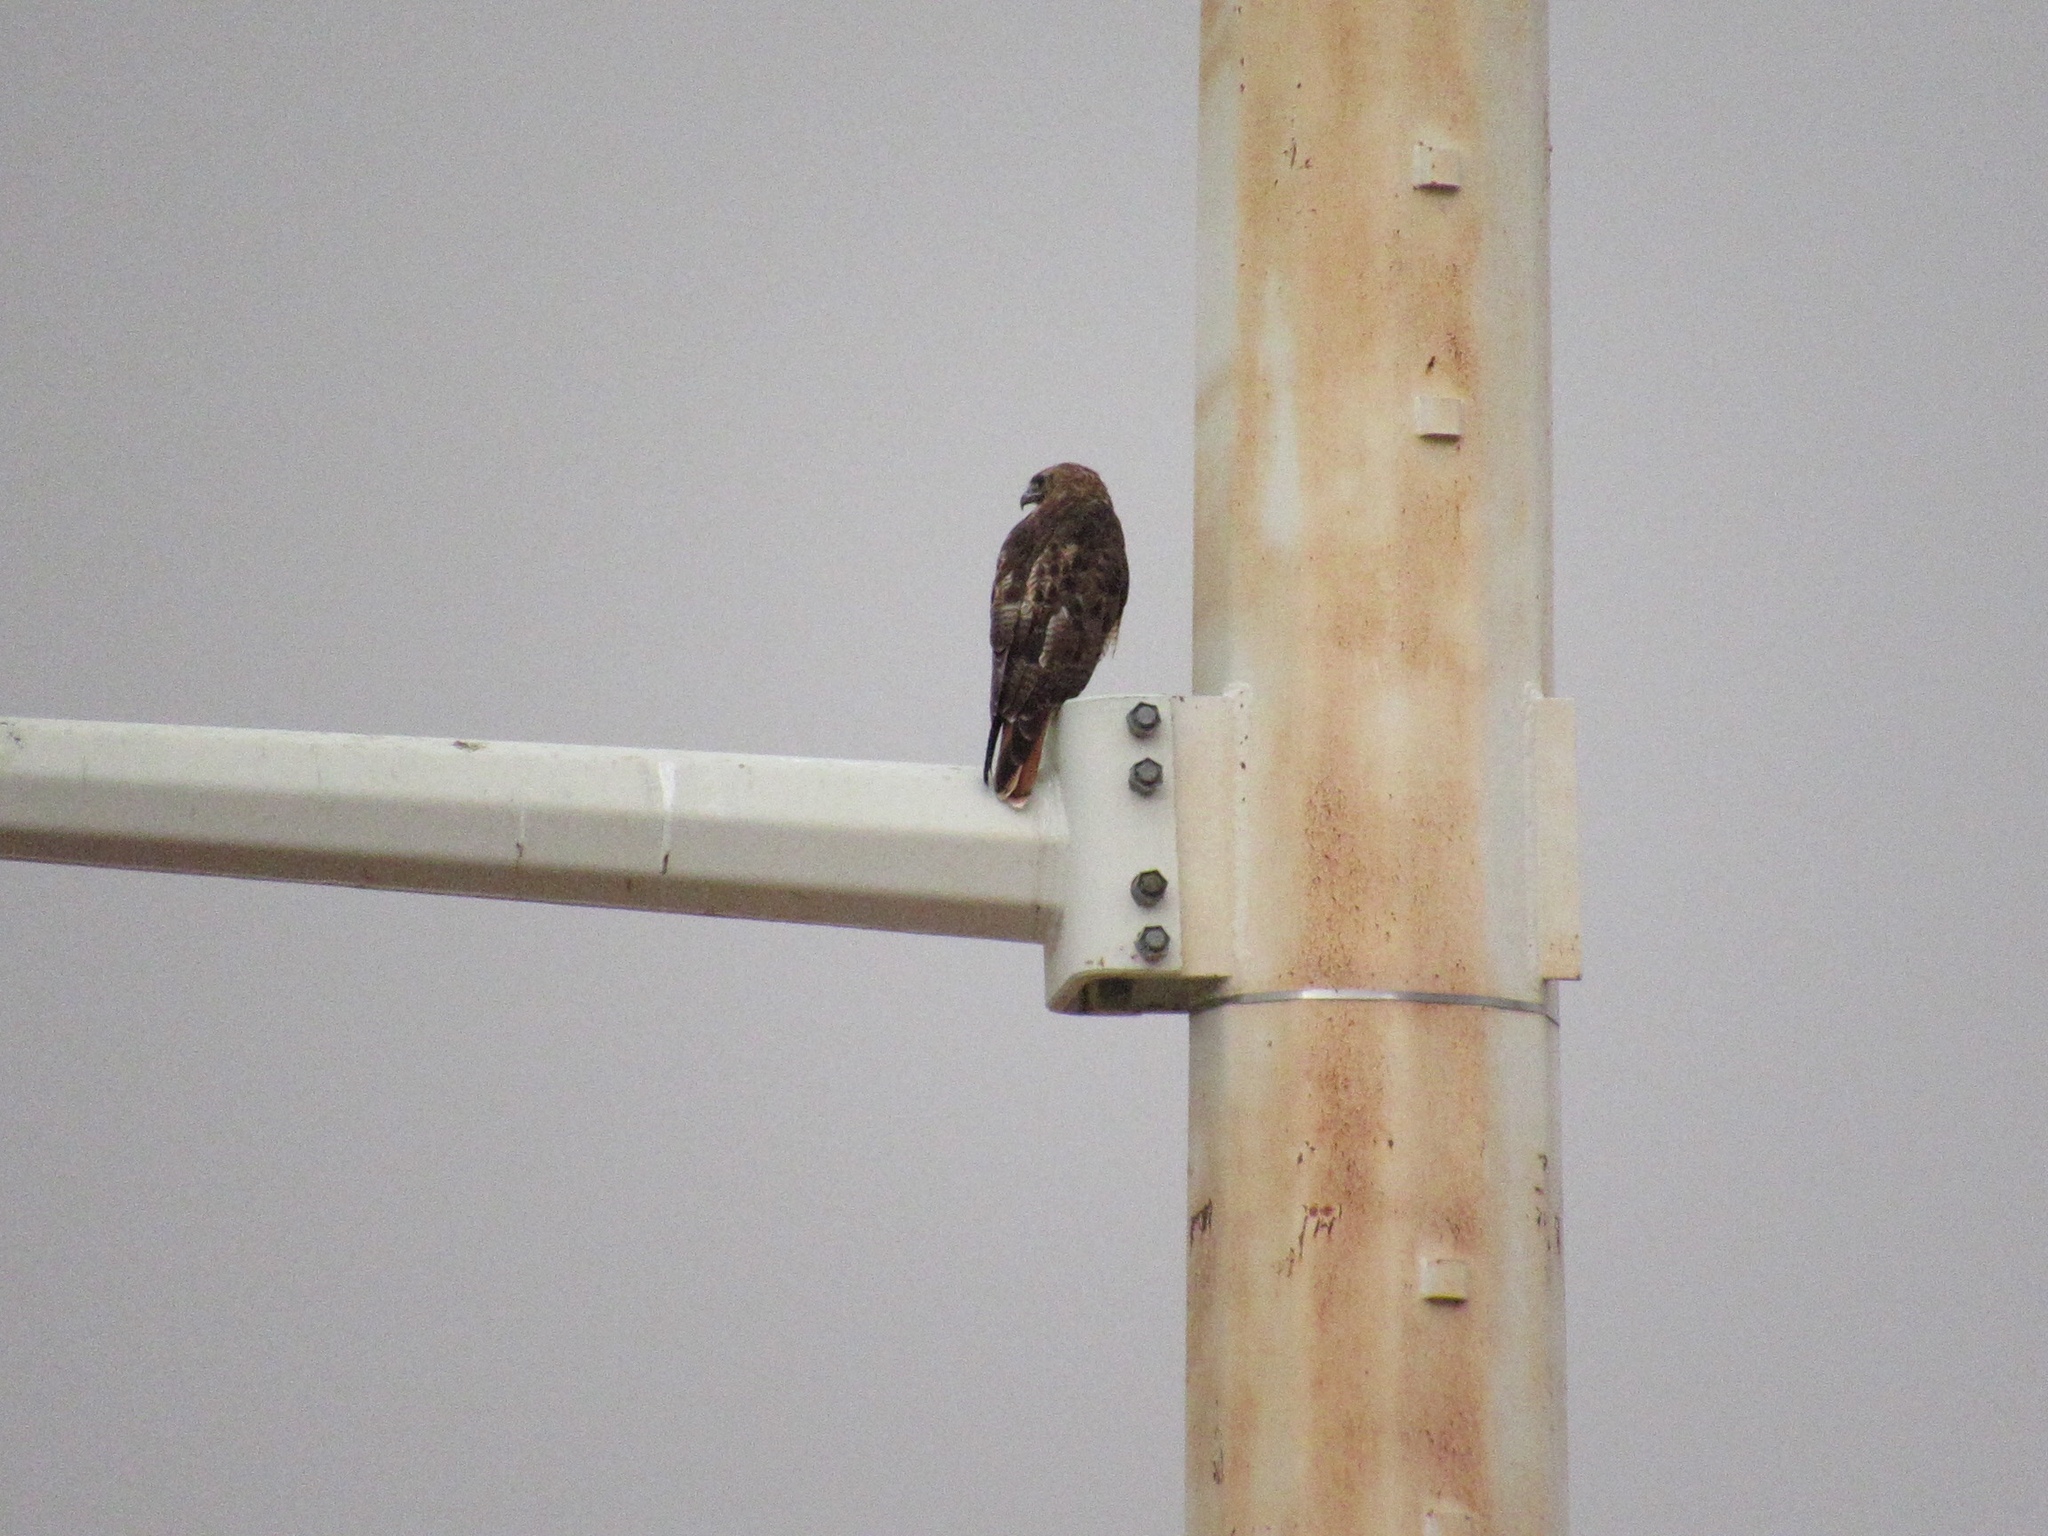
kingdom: Animalia
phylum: Chordata
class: Aves
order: Accipitriformes
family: Accipitridae
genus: Buteo
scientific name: Buteo jamaicensis
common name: Red-tailed hawk
